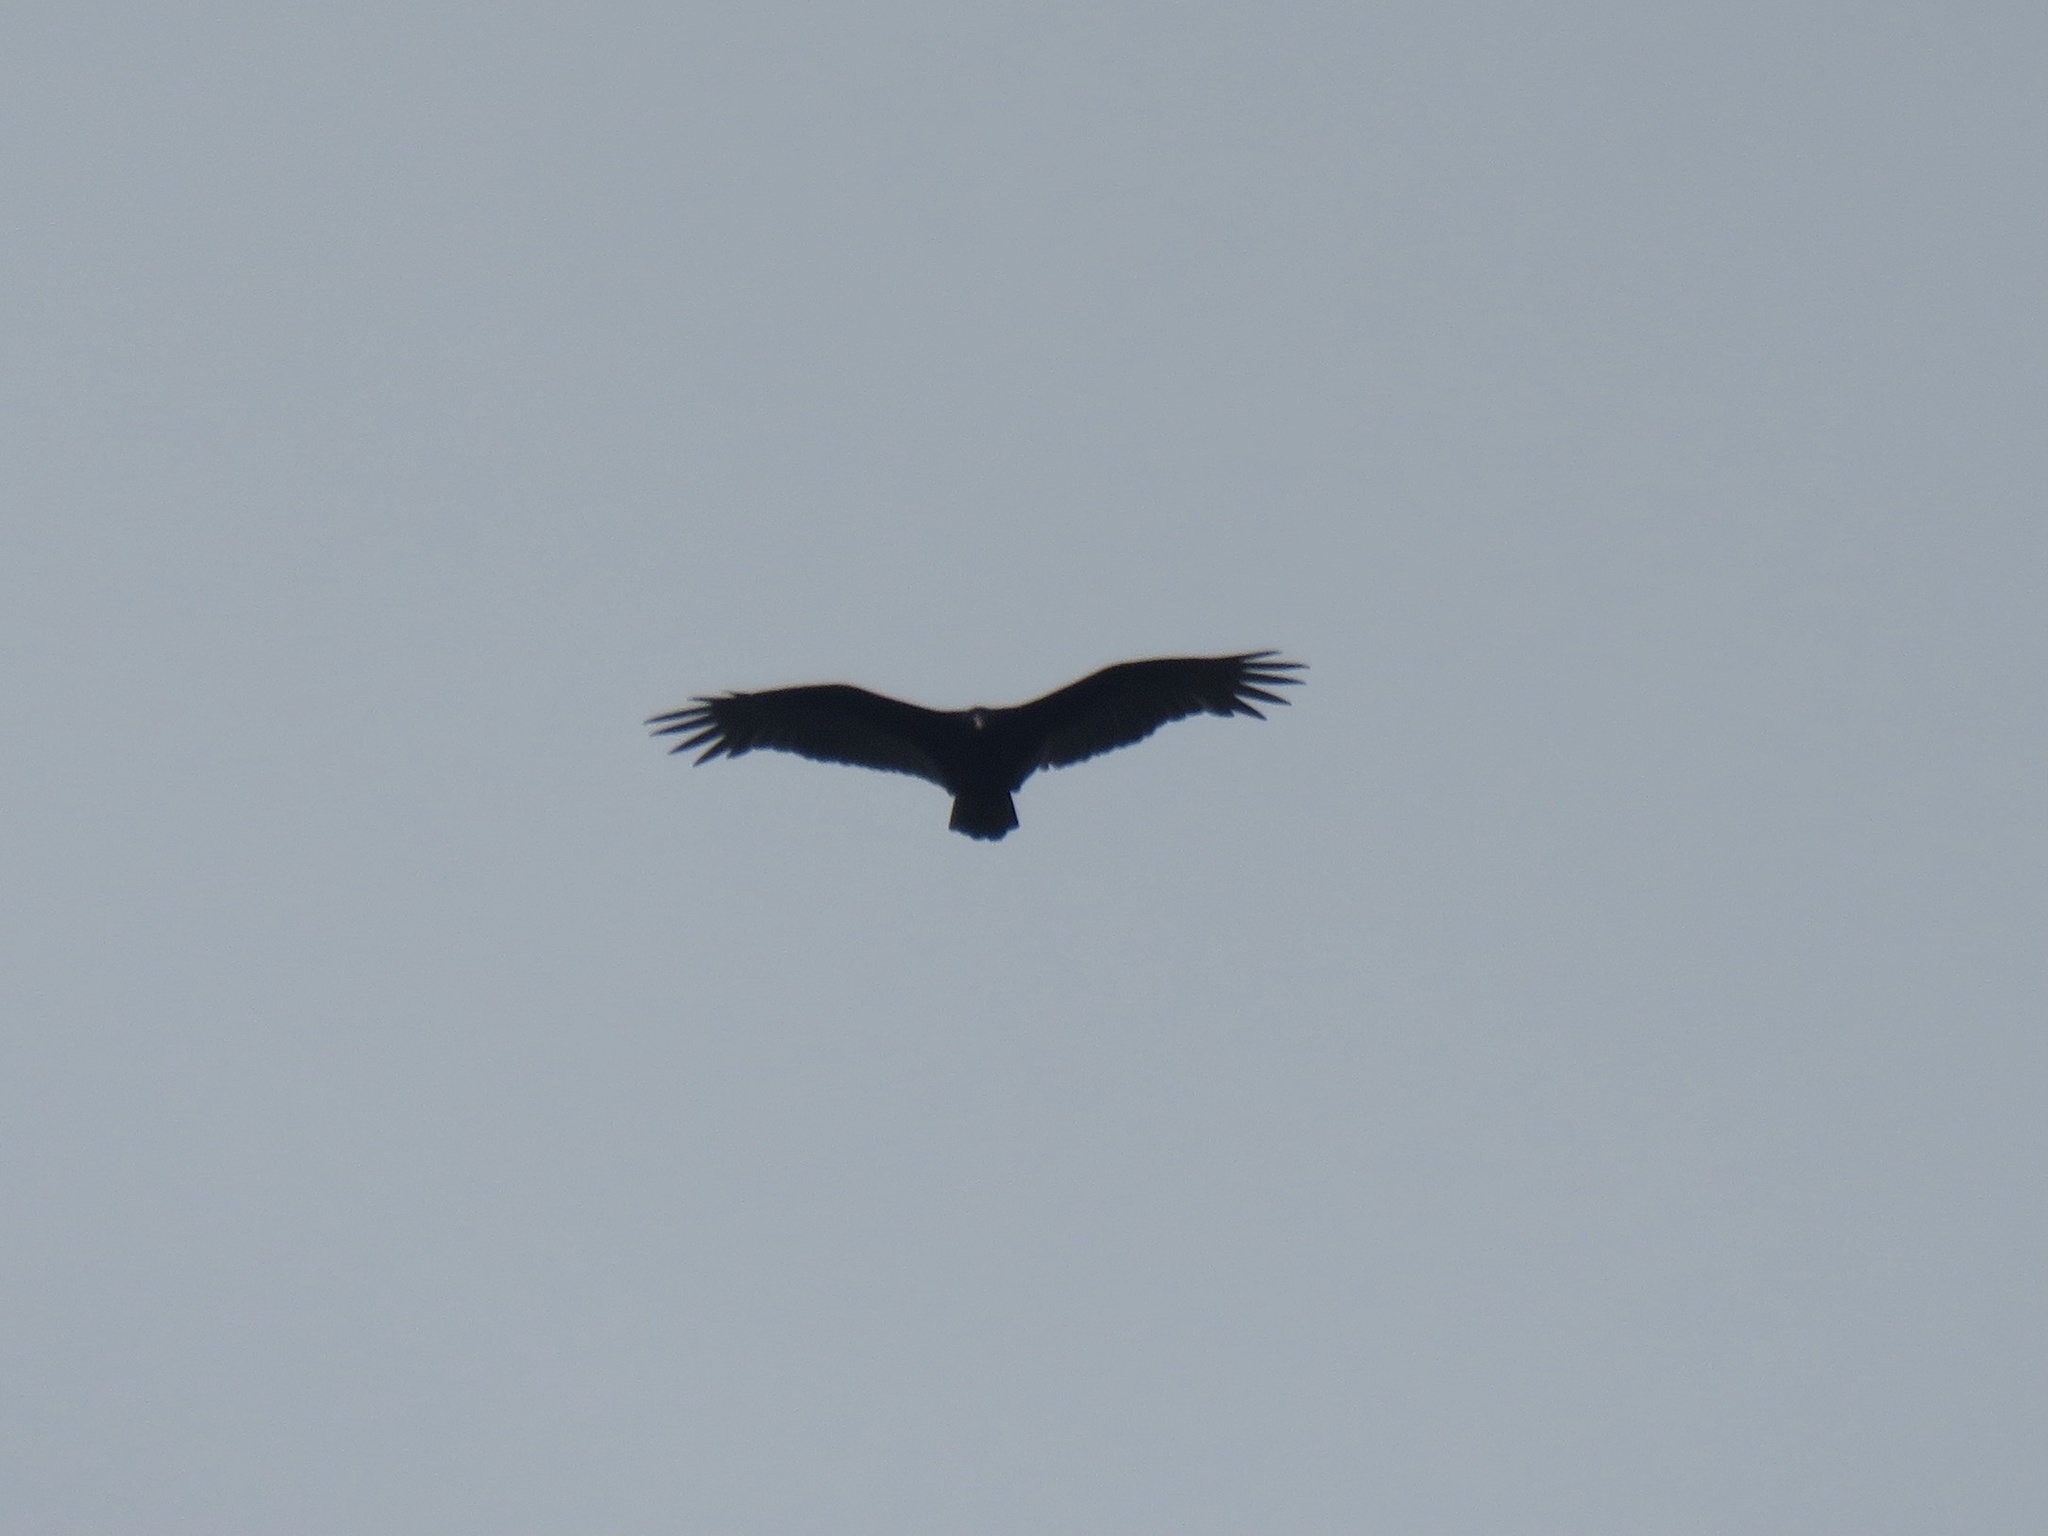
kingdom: Animalia
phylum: Chordata
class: Aves
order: Accipitriformes
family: Cathartidae
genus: Cathartes
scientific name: Cathartes aura
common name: Turkey vulture
